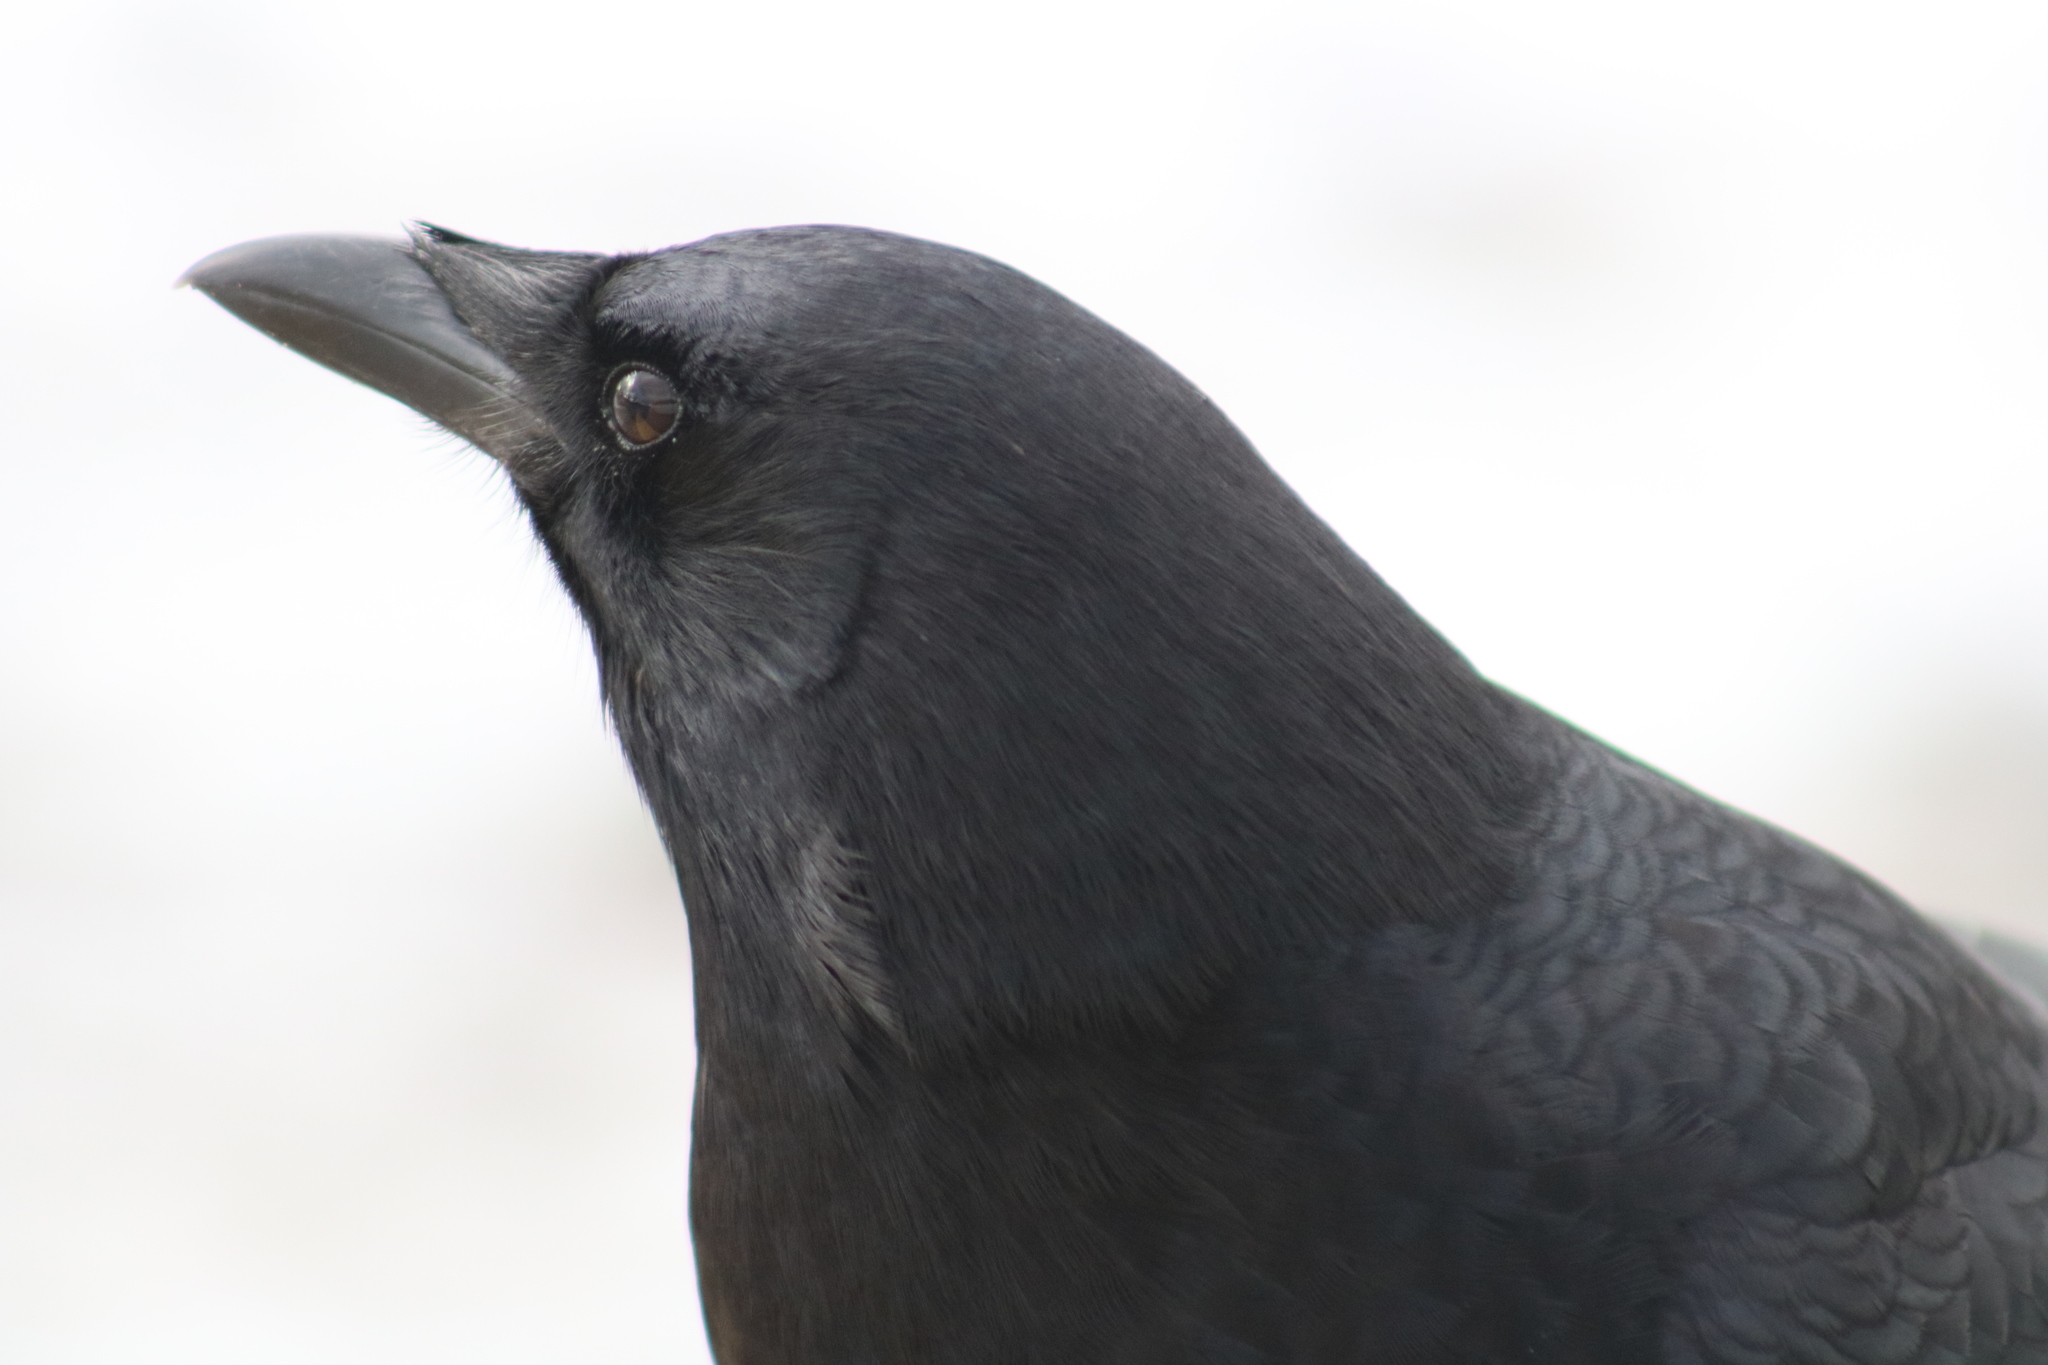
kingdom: Animalia
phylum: Chordata
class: Aves
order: Passeriformes
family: Corvidae
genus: Corvus
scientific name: Corvus brachyrhynchos
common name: American crow
